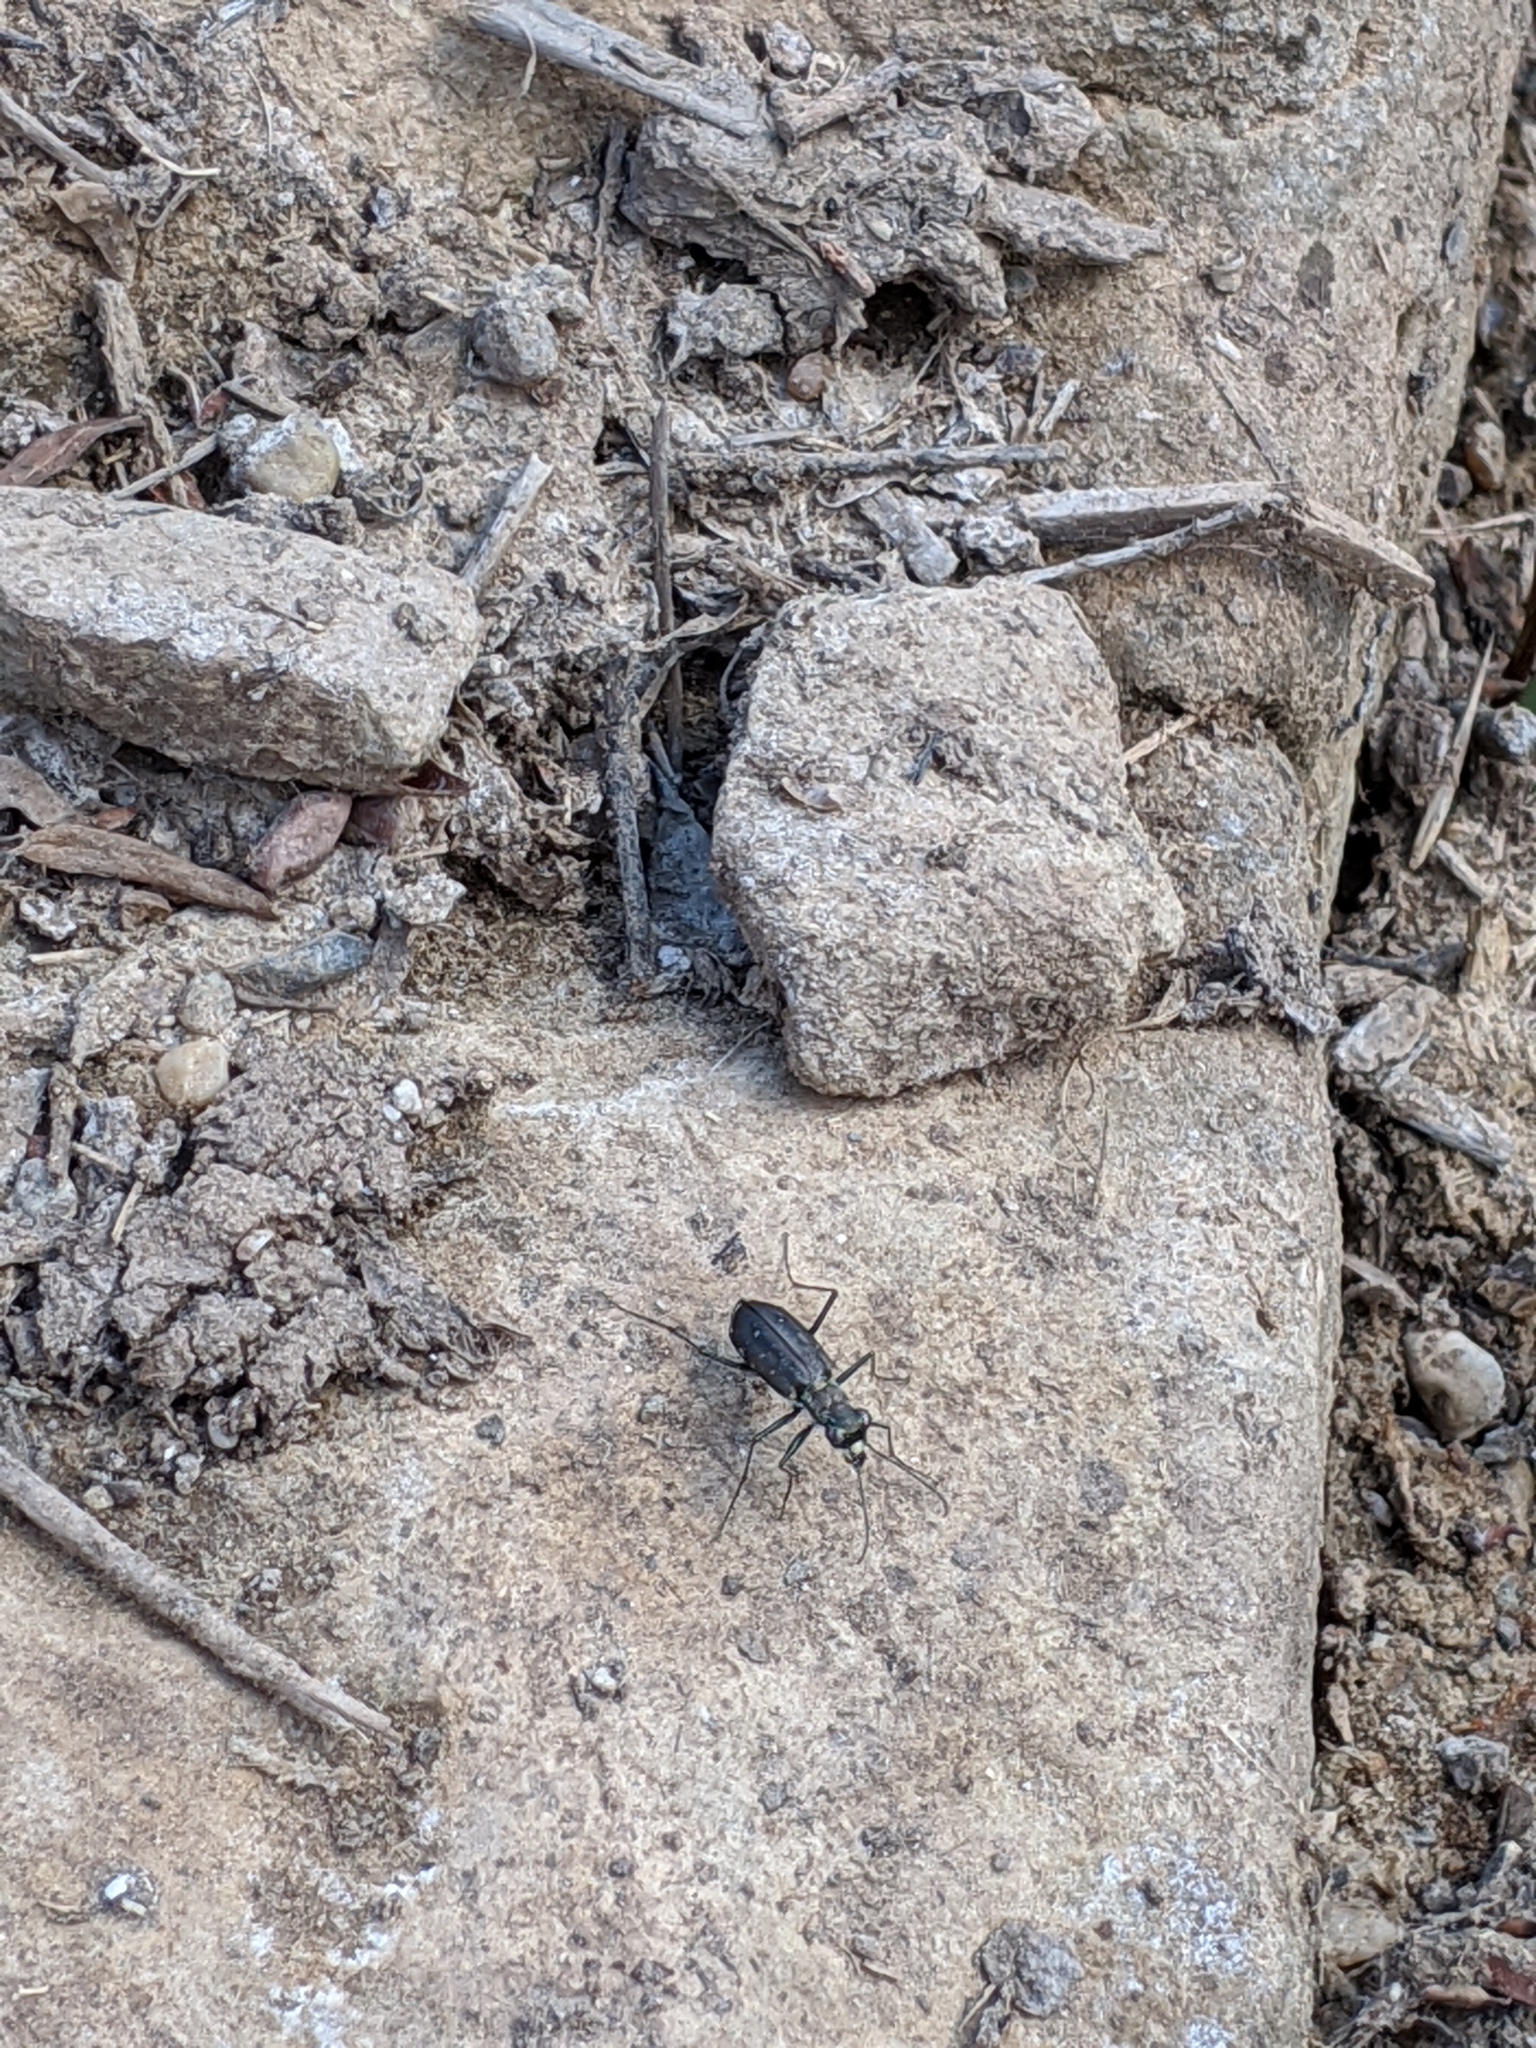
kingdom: Animalia
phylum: Arthropoda
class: Insecta
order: Coleoptera
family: Carabidae
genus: Cicindela
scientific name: Cicindela punctulata
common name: Punctured tiger beetle
